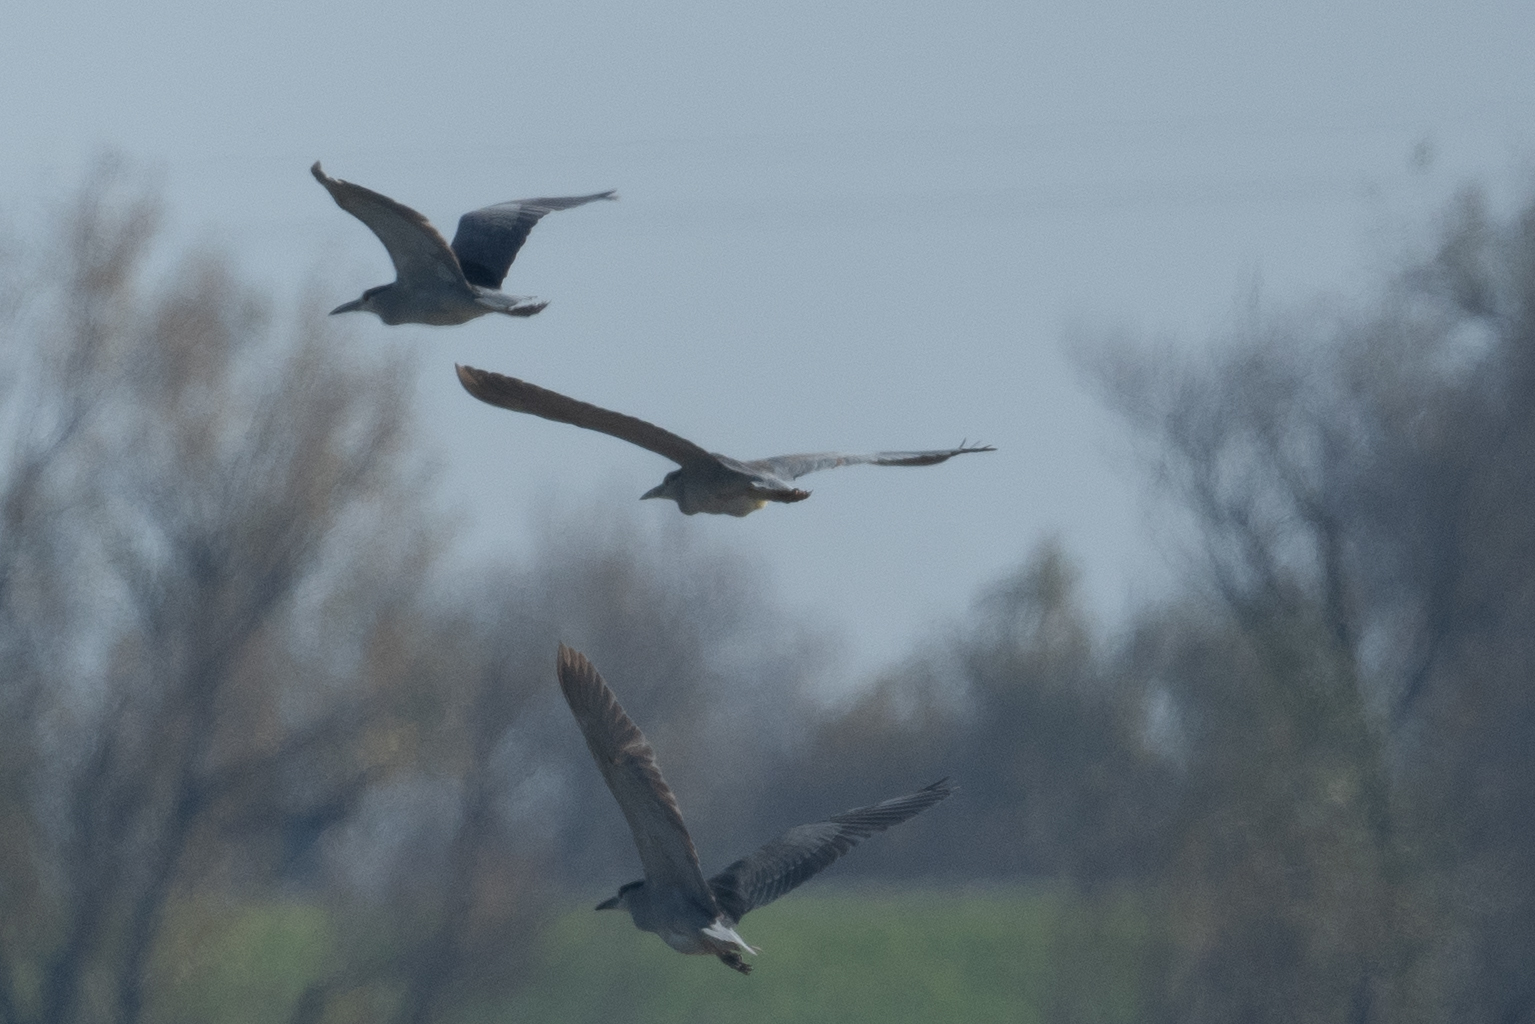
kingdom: Animalia
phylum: Chordata
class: Aves
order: Pelecaniformes
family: Ardeidae
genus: Nycticorax
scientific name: Nycticorax nycticorax
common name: Black-crowned night heron
